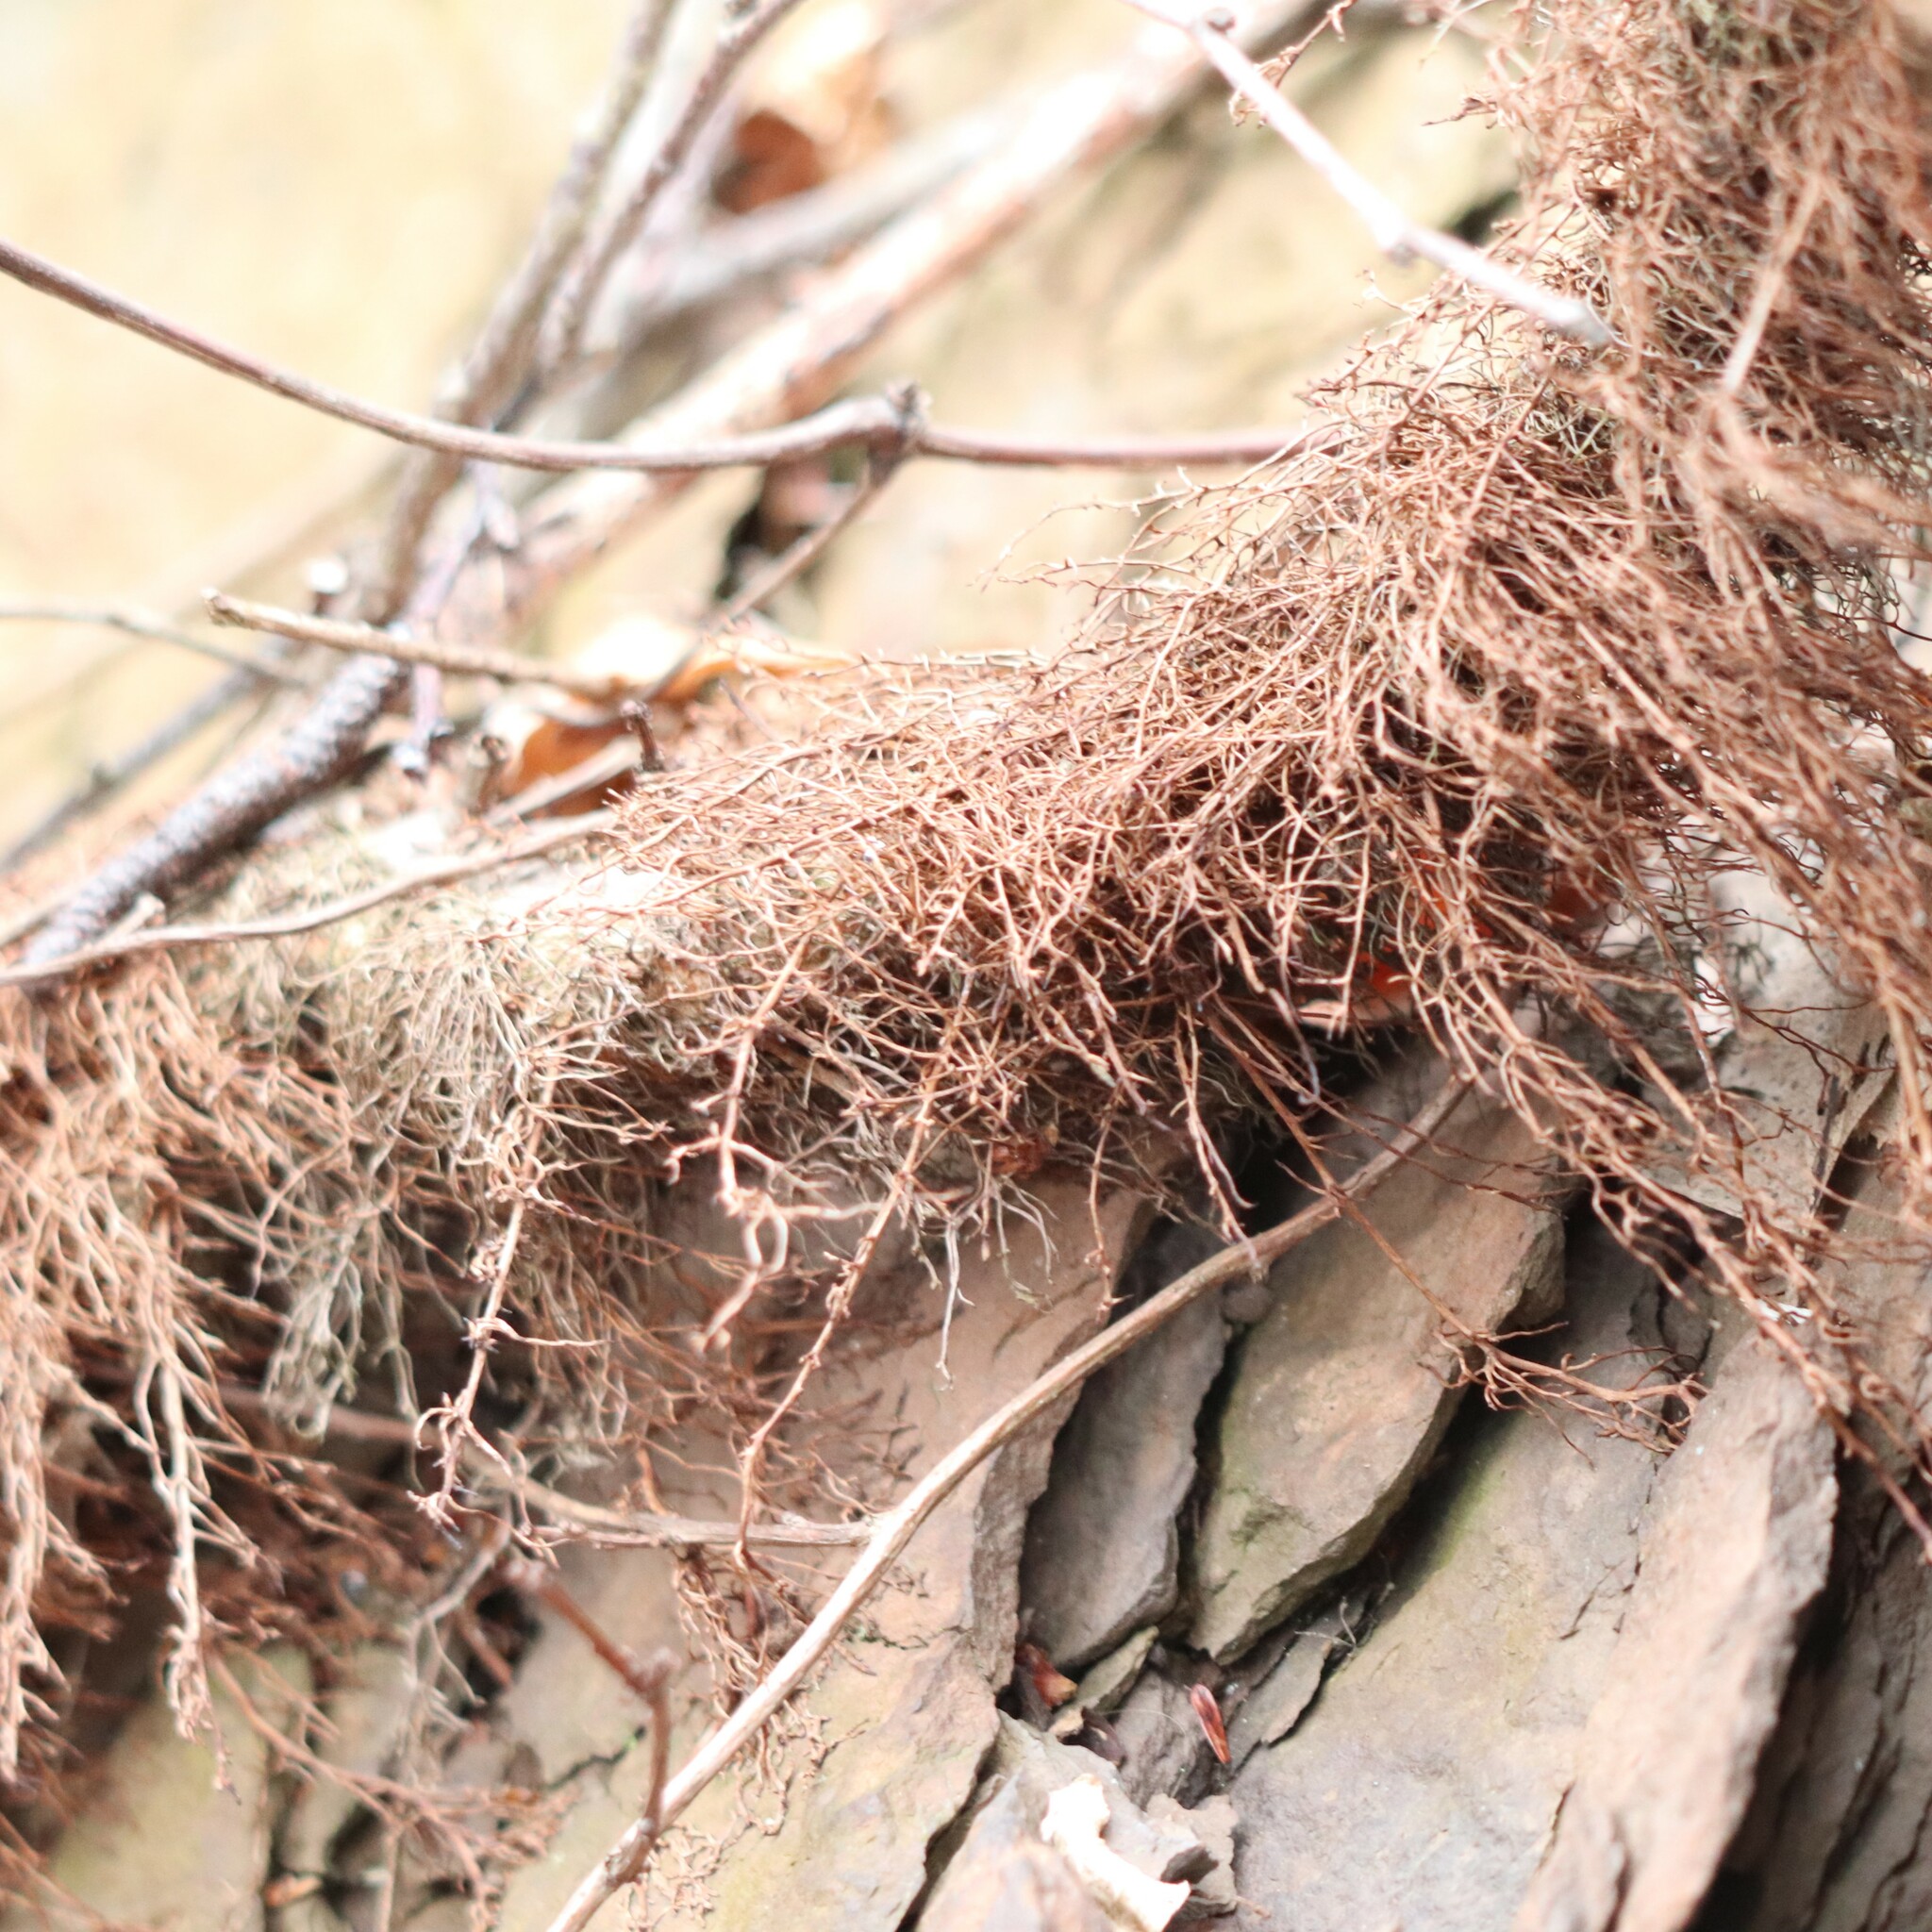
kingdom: Plantae
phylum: Tracheophyta
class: Magnoliopsida
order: Sapindales
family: Anacardiaceae
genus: Toxicodendron
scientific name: Toxicodendron radicans
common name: Poison ivy
